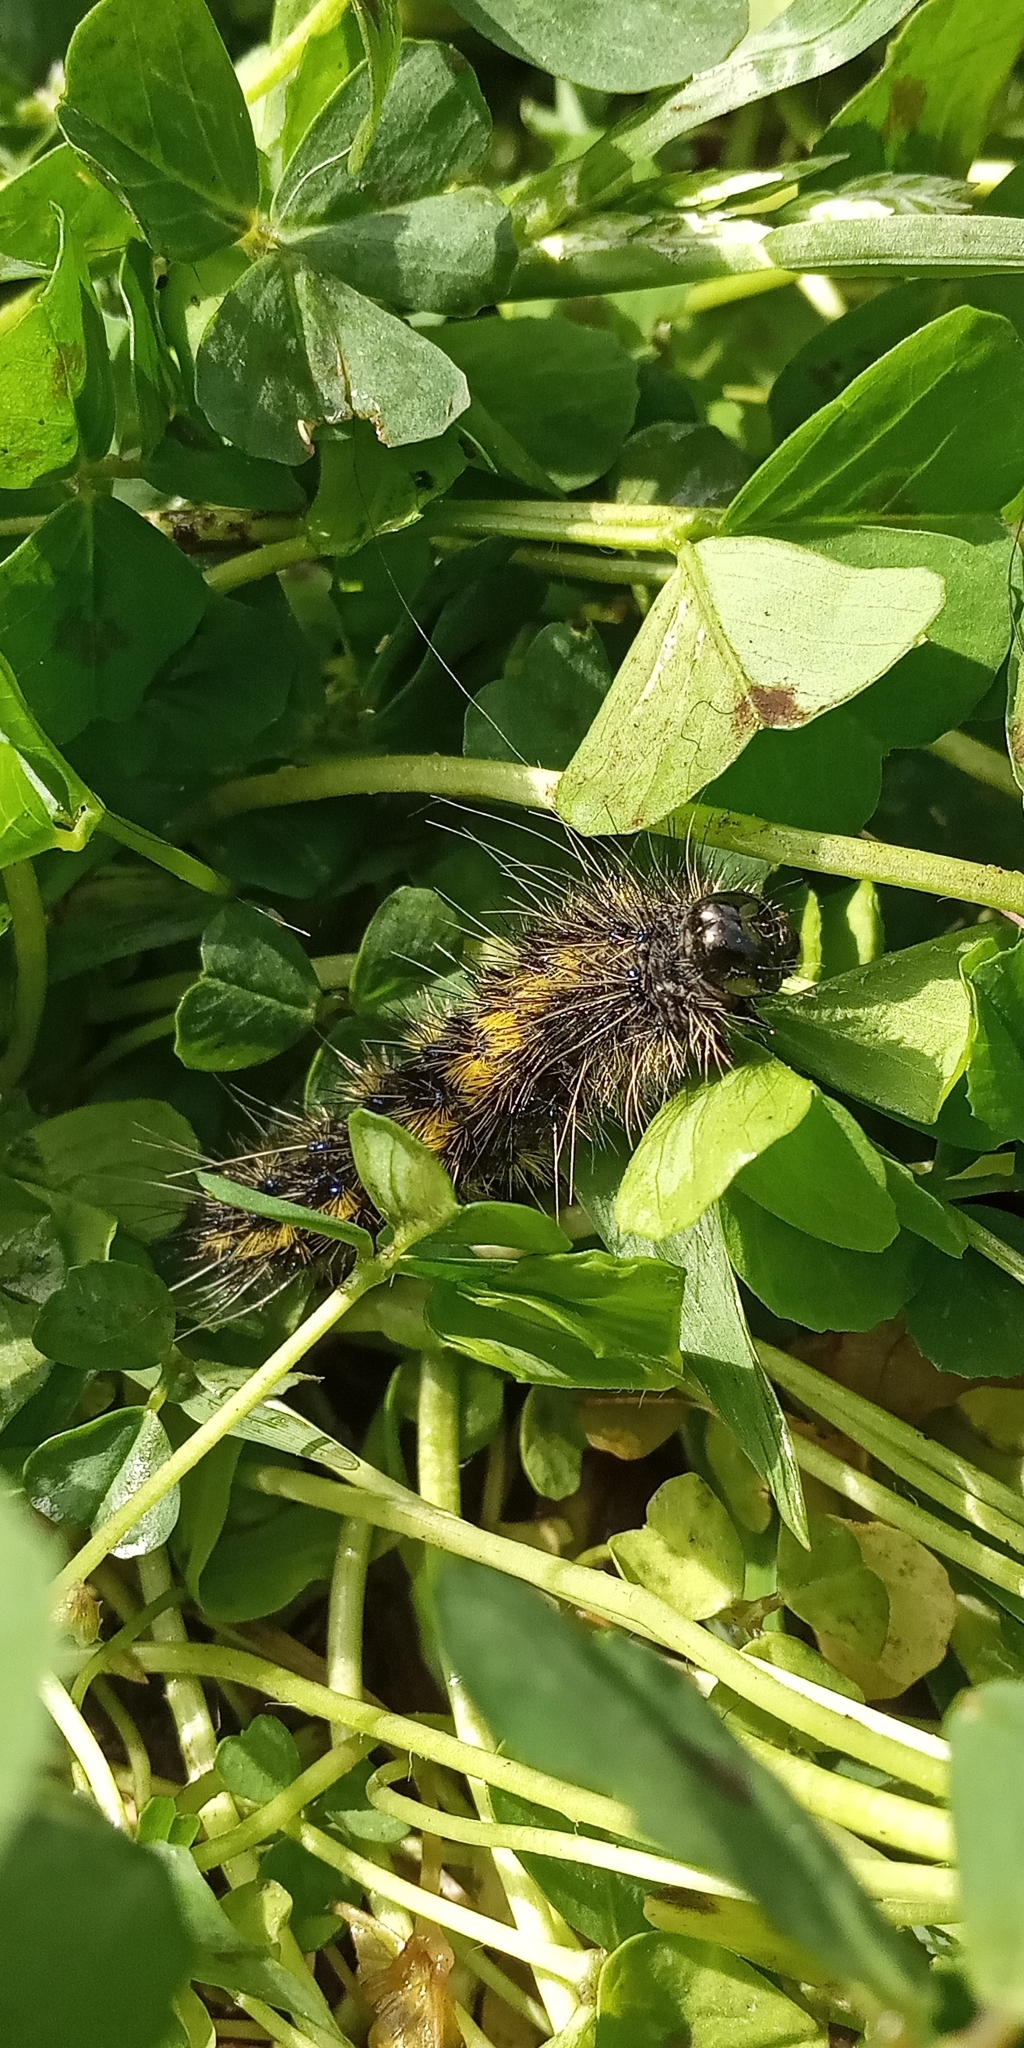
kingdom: Animalia
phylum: Arthropoda
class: Insecta
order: Lepidoptera
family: Erebidae
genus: Dysschema
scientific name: Dysschema centenaria
